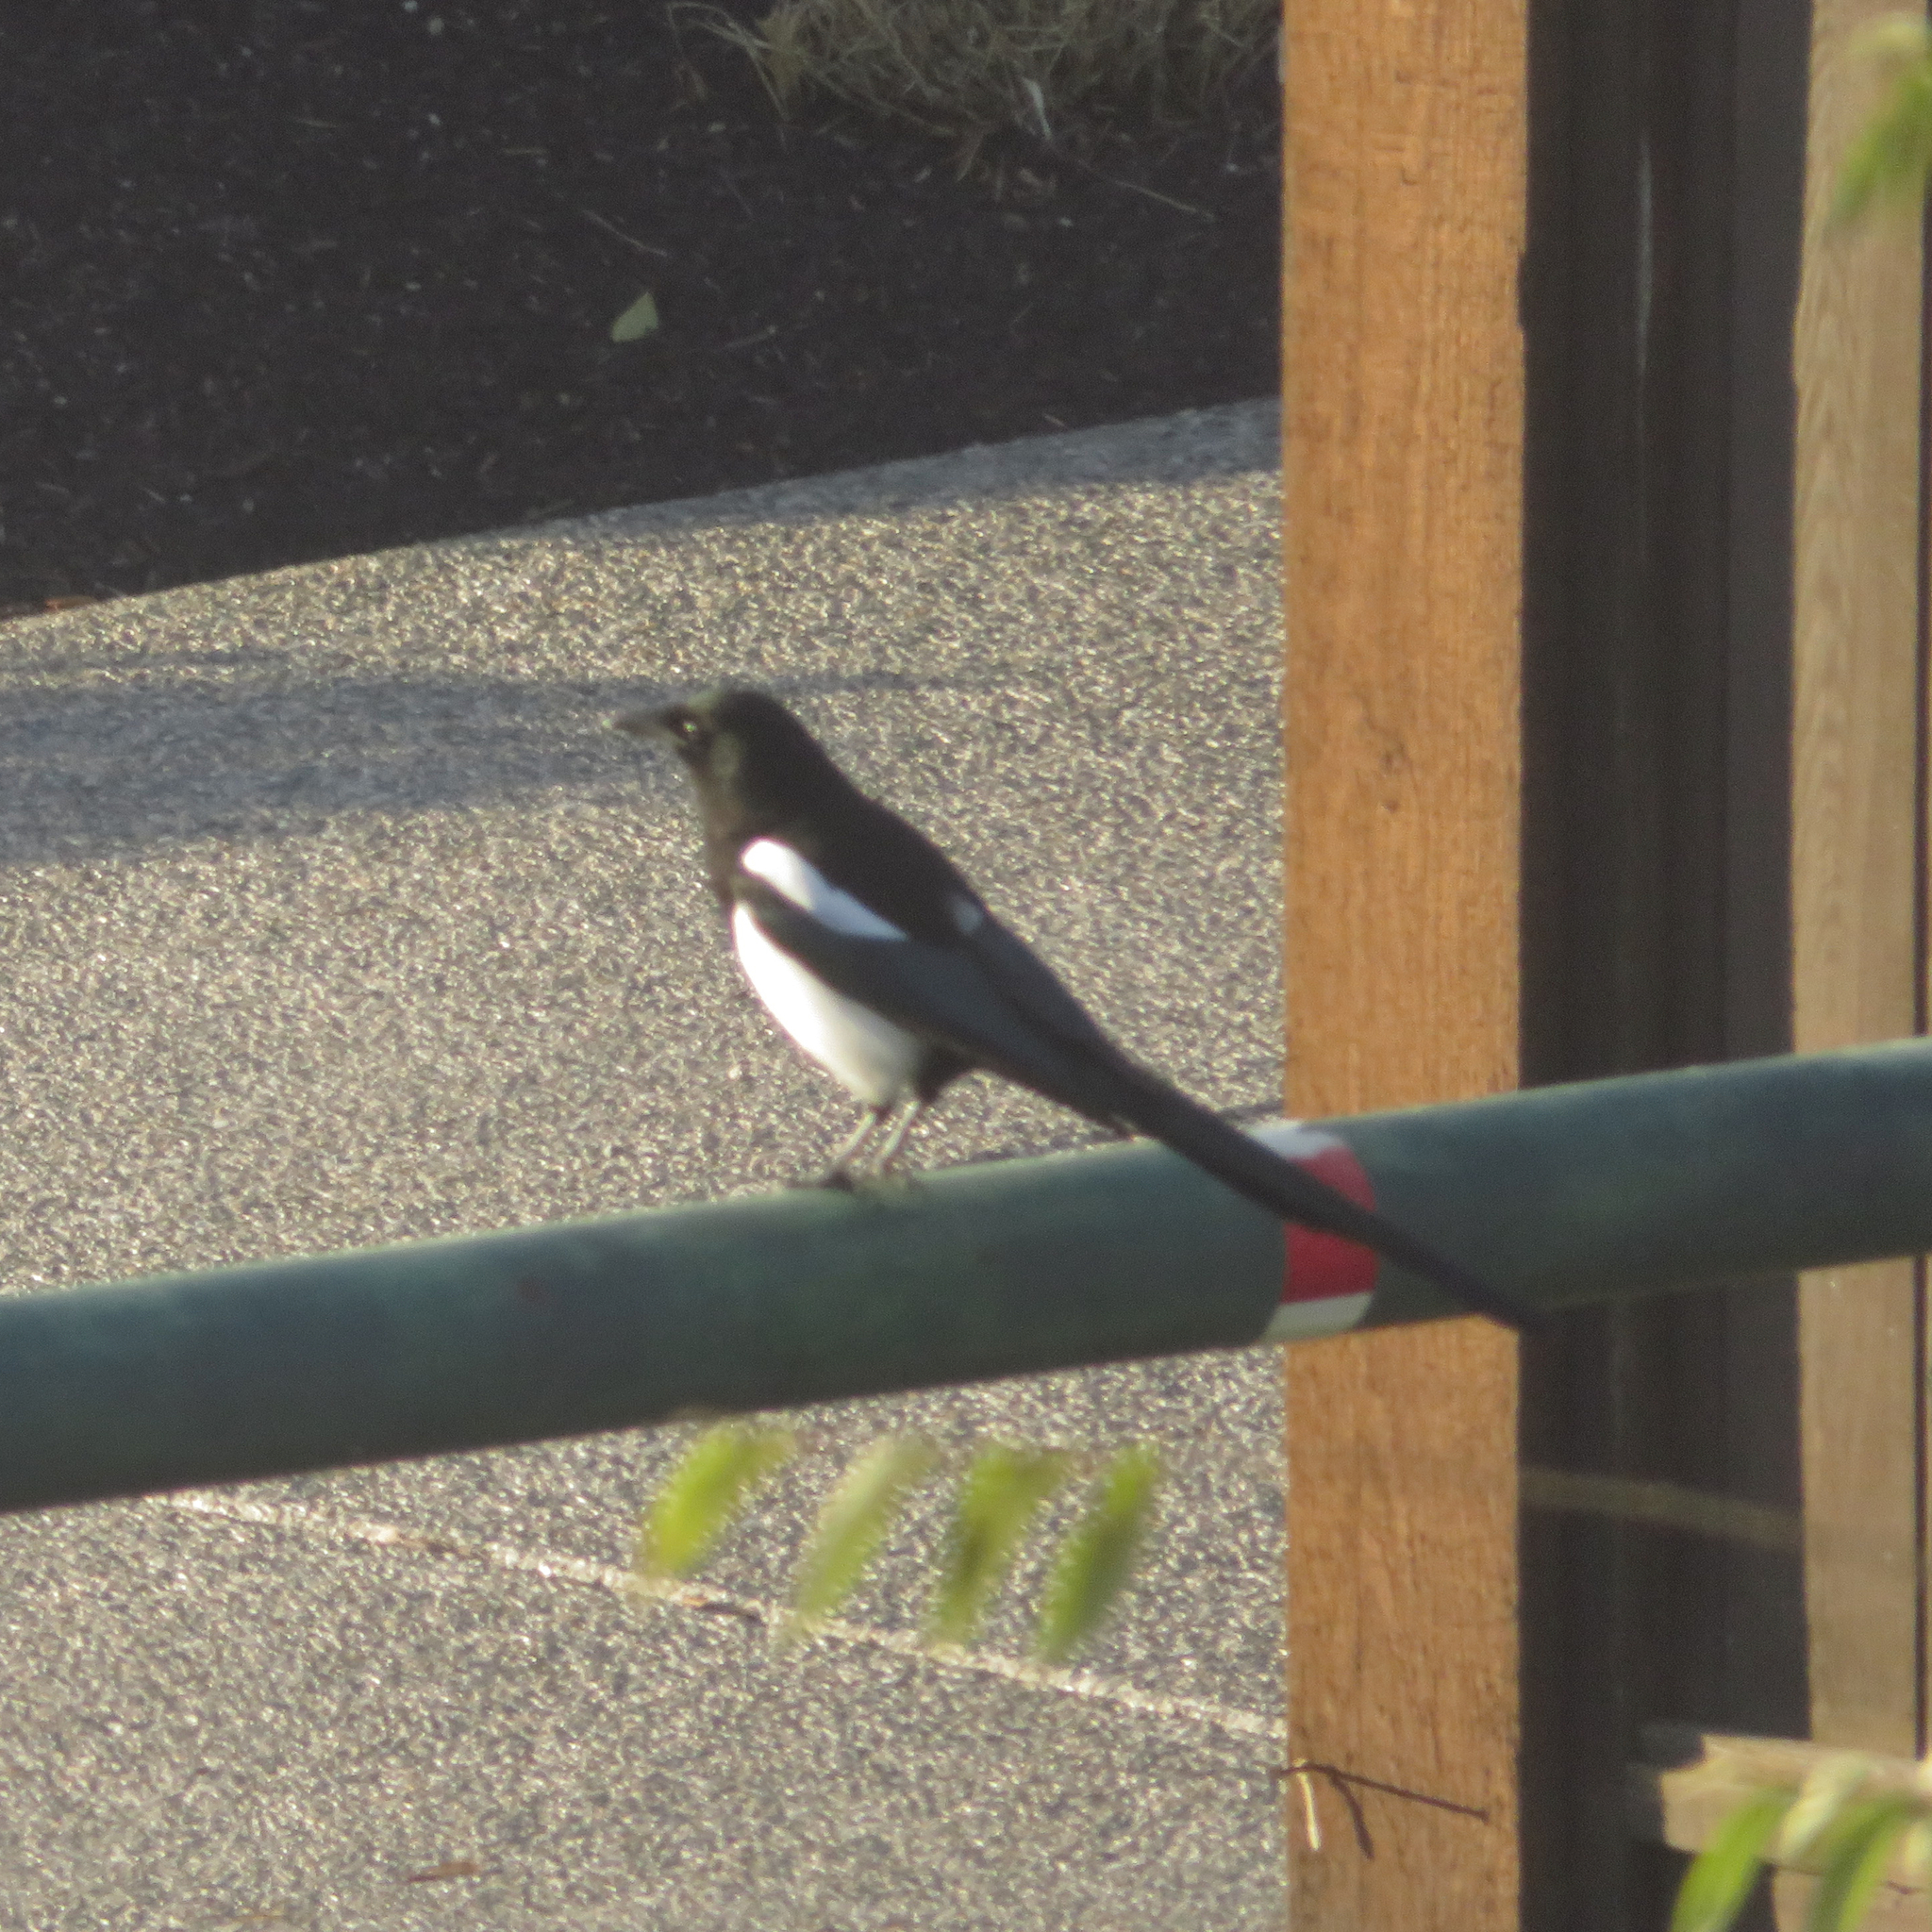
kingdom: Animalia
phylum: Chordata
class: Aves
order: Passeriformes
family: Corvidae
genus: Pica
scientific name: Pica hudsonia
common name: Black-billed magpie
